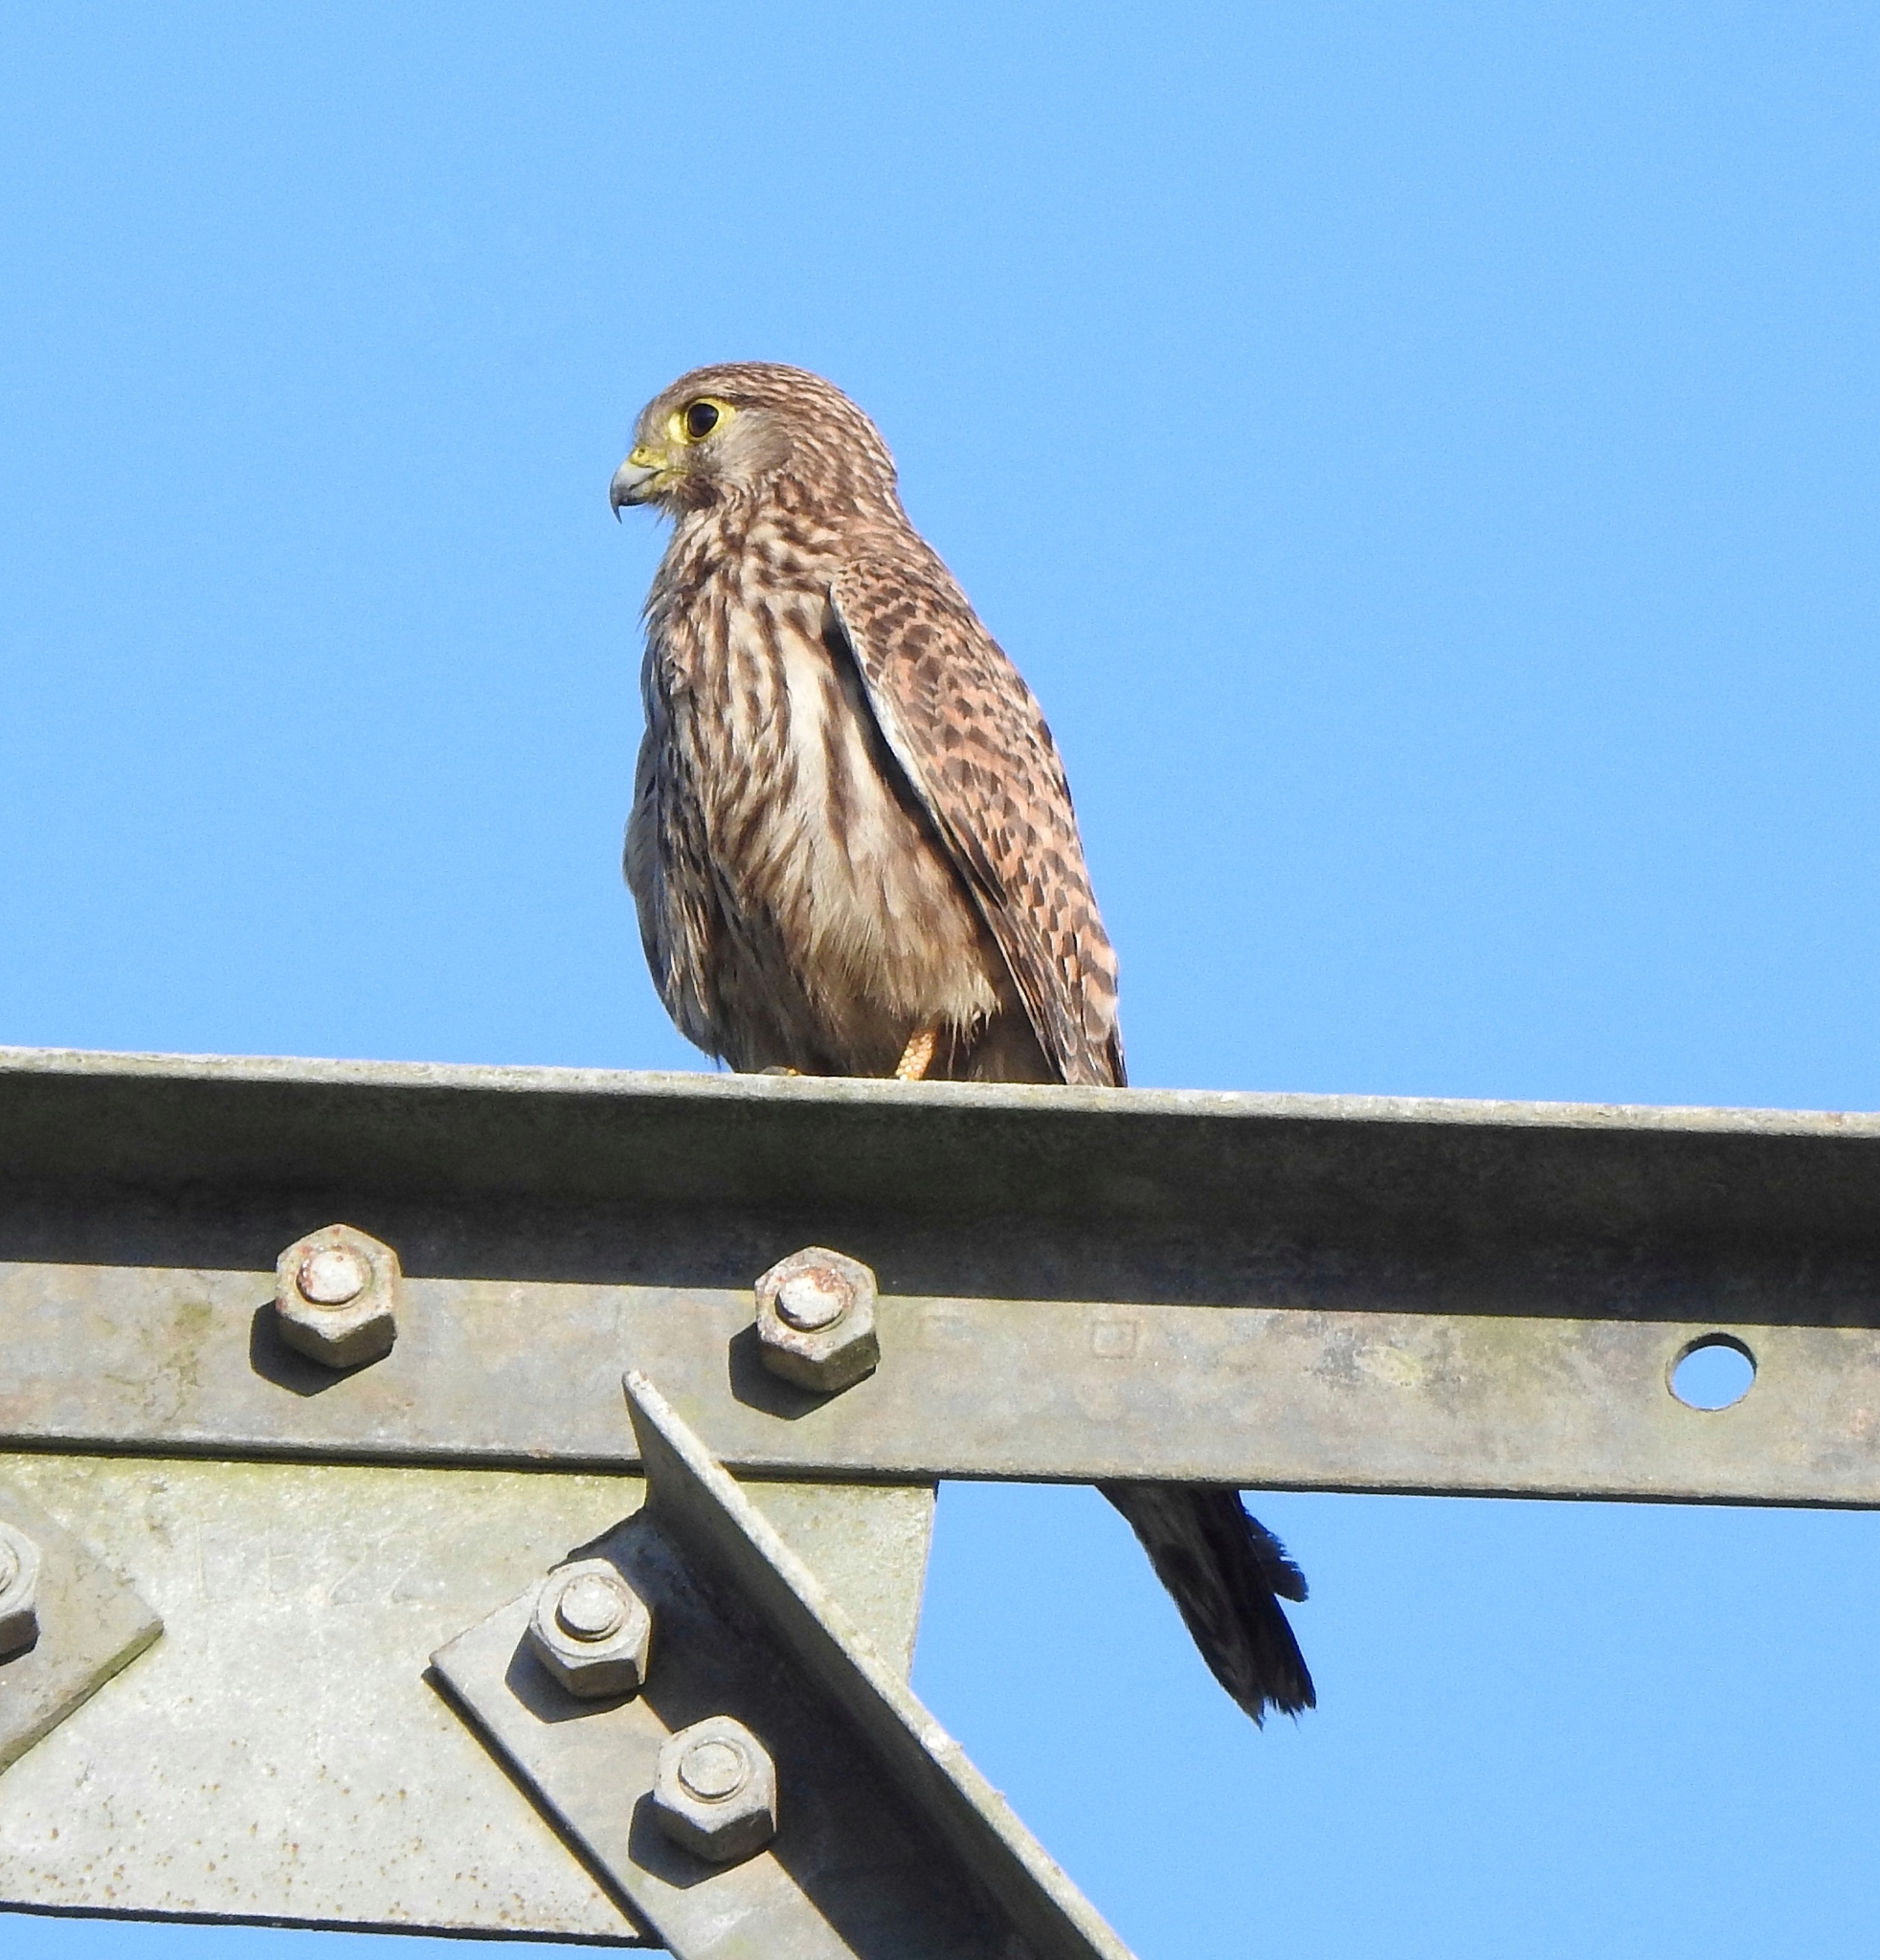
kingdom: Animalia
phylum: Chordata
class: Aves
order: Falconiformes
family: Falconidae
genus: Falco
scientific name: Falco tinnunculus
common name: Common kestrel
